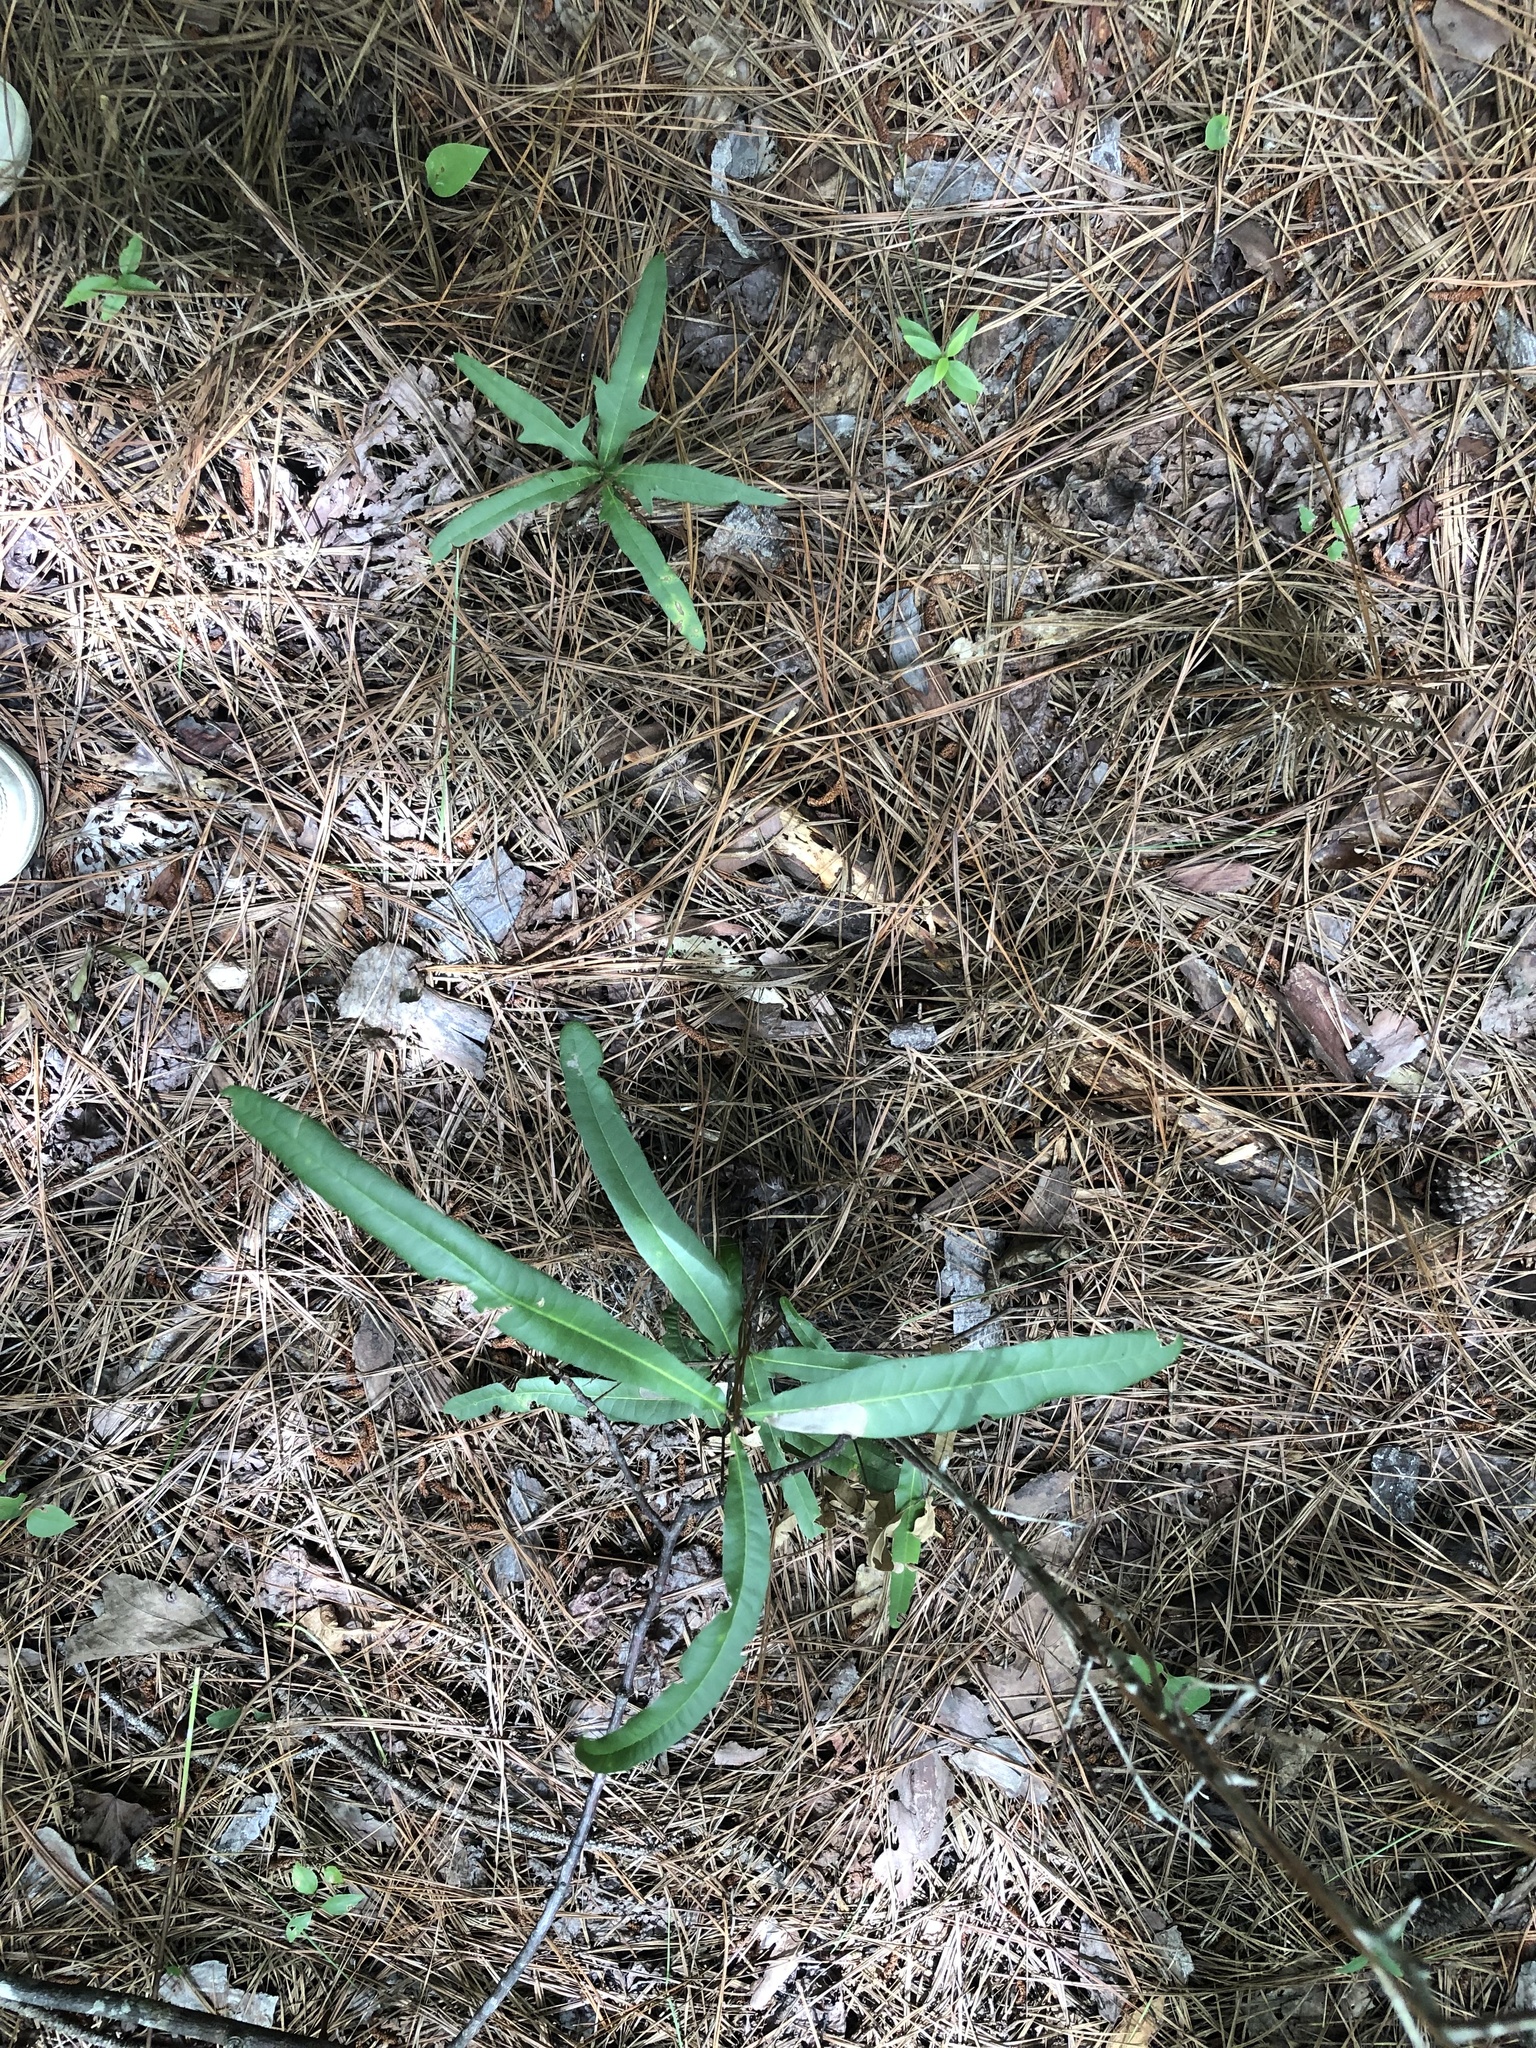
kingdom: Plantae
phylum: Tracheophyta
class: Magnoliopsida
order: Fagales
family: Fagaceae
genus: Quercus
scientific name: Quercus phellos
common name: Willow oak
